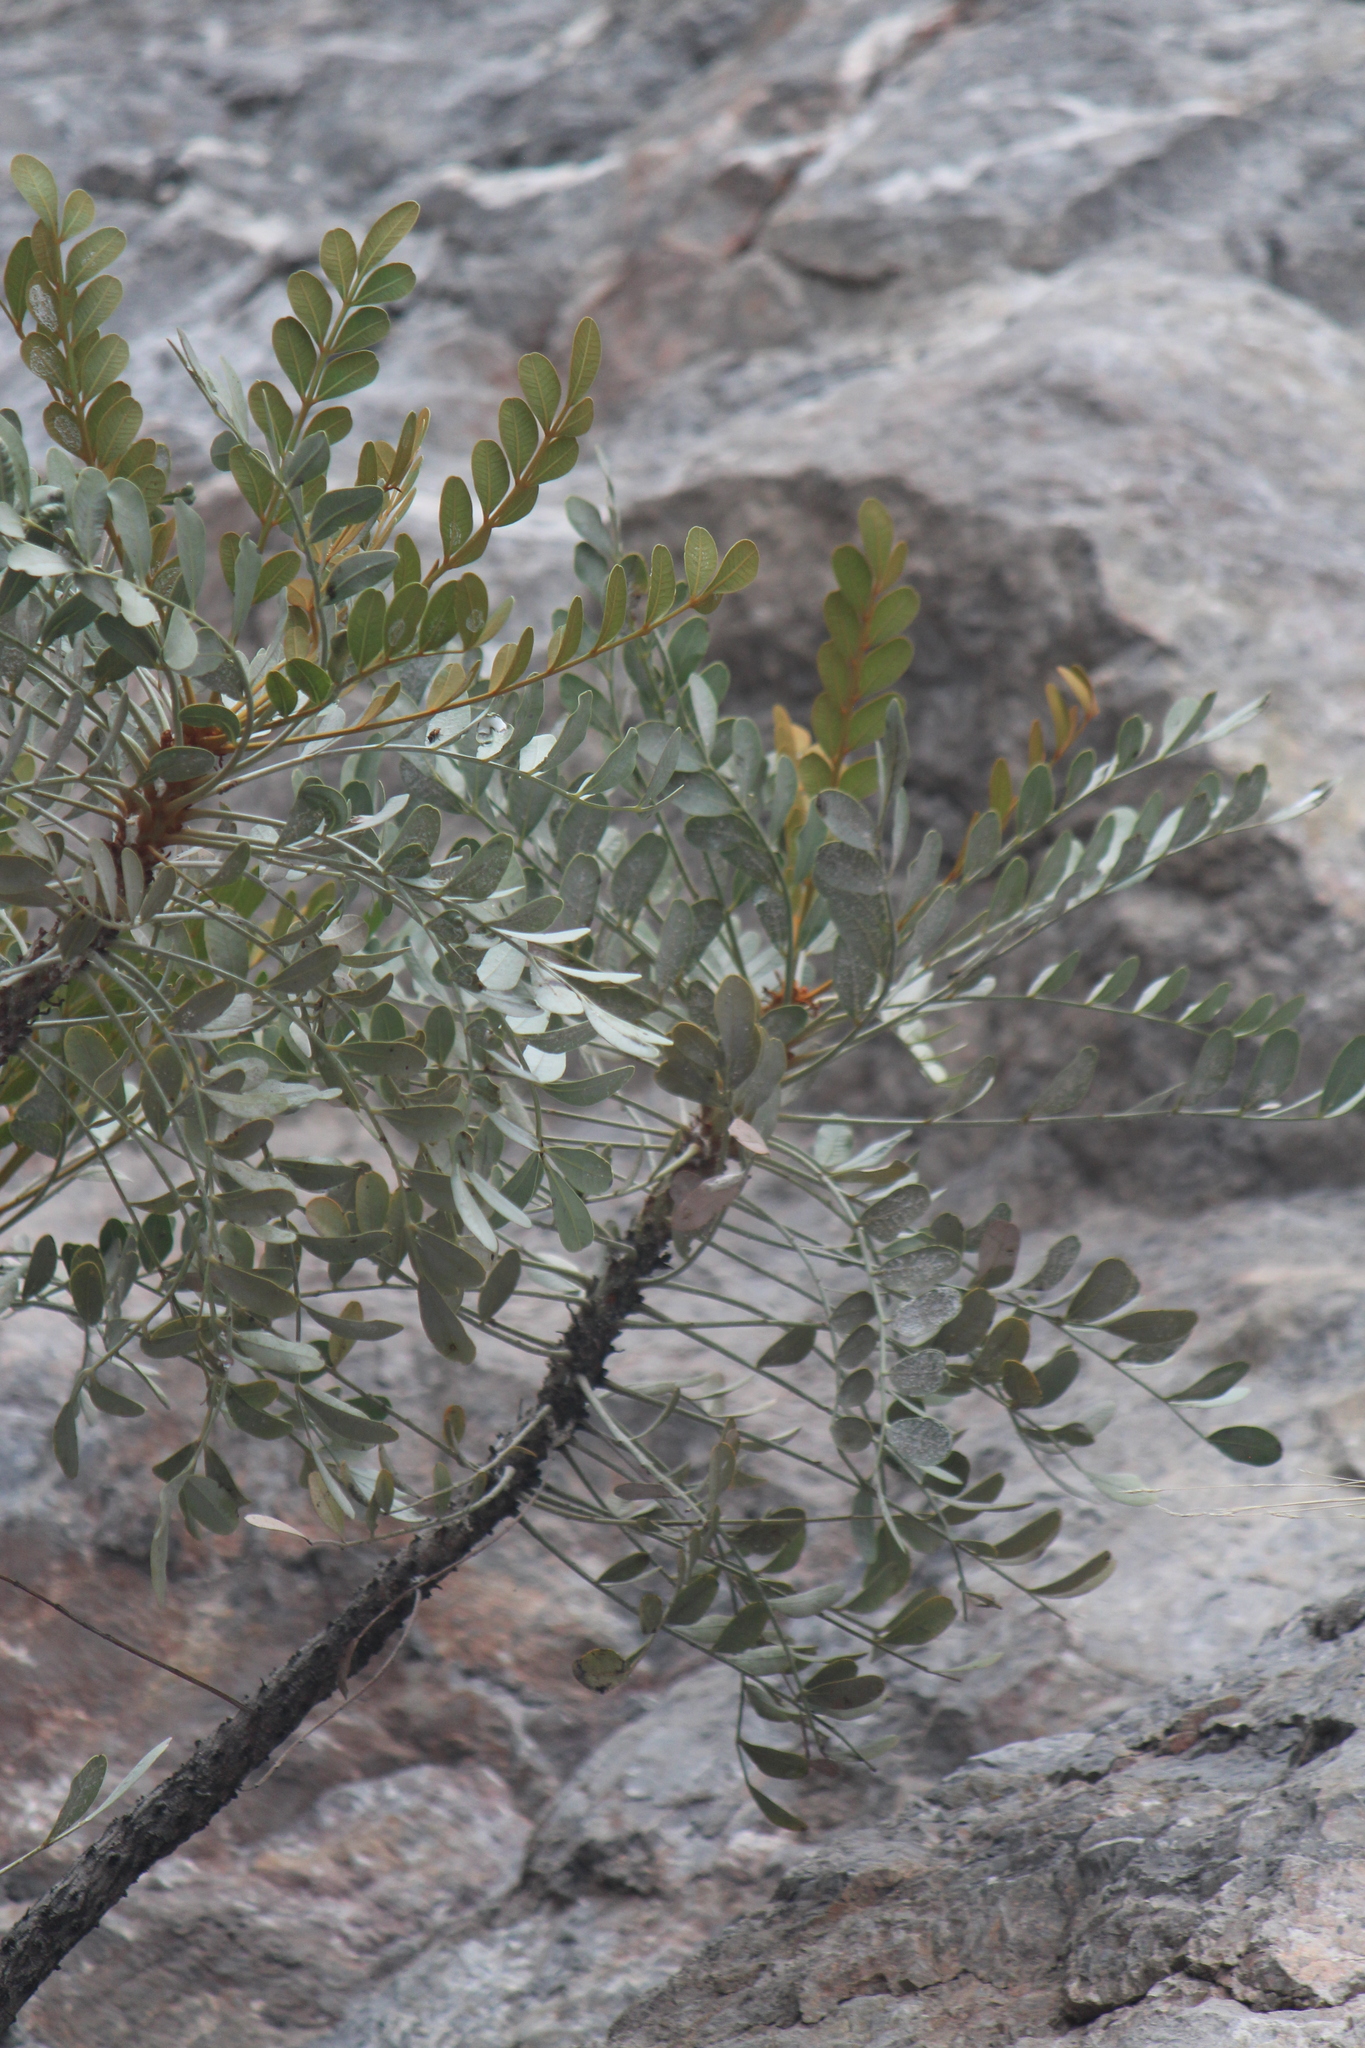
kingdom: Plantae
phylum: Tracheophyta
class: Magnoliopsida
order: Sapindales
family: Anacardiaceae
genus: Pseudosmodingium
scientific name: Pseudosmodingium virletii
